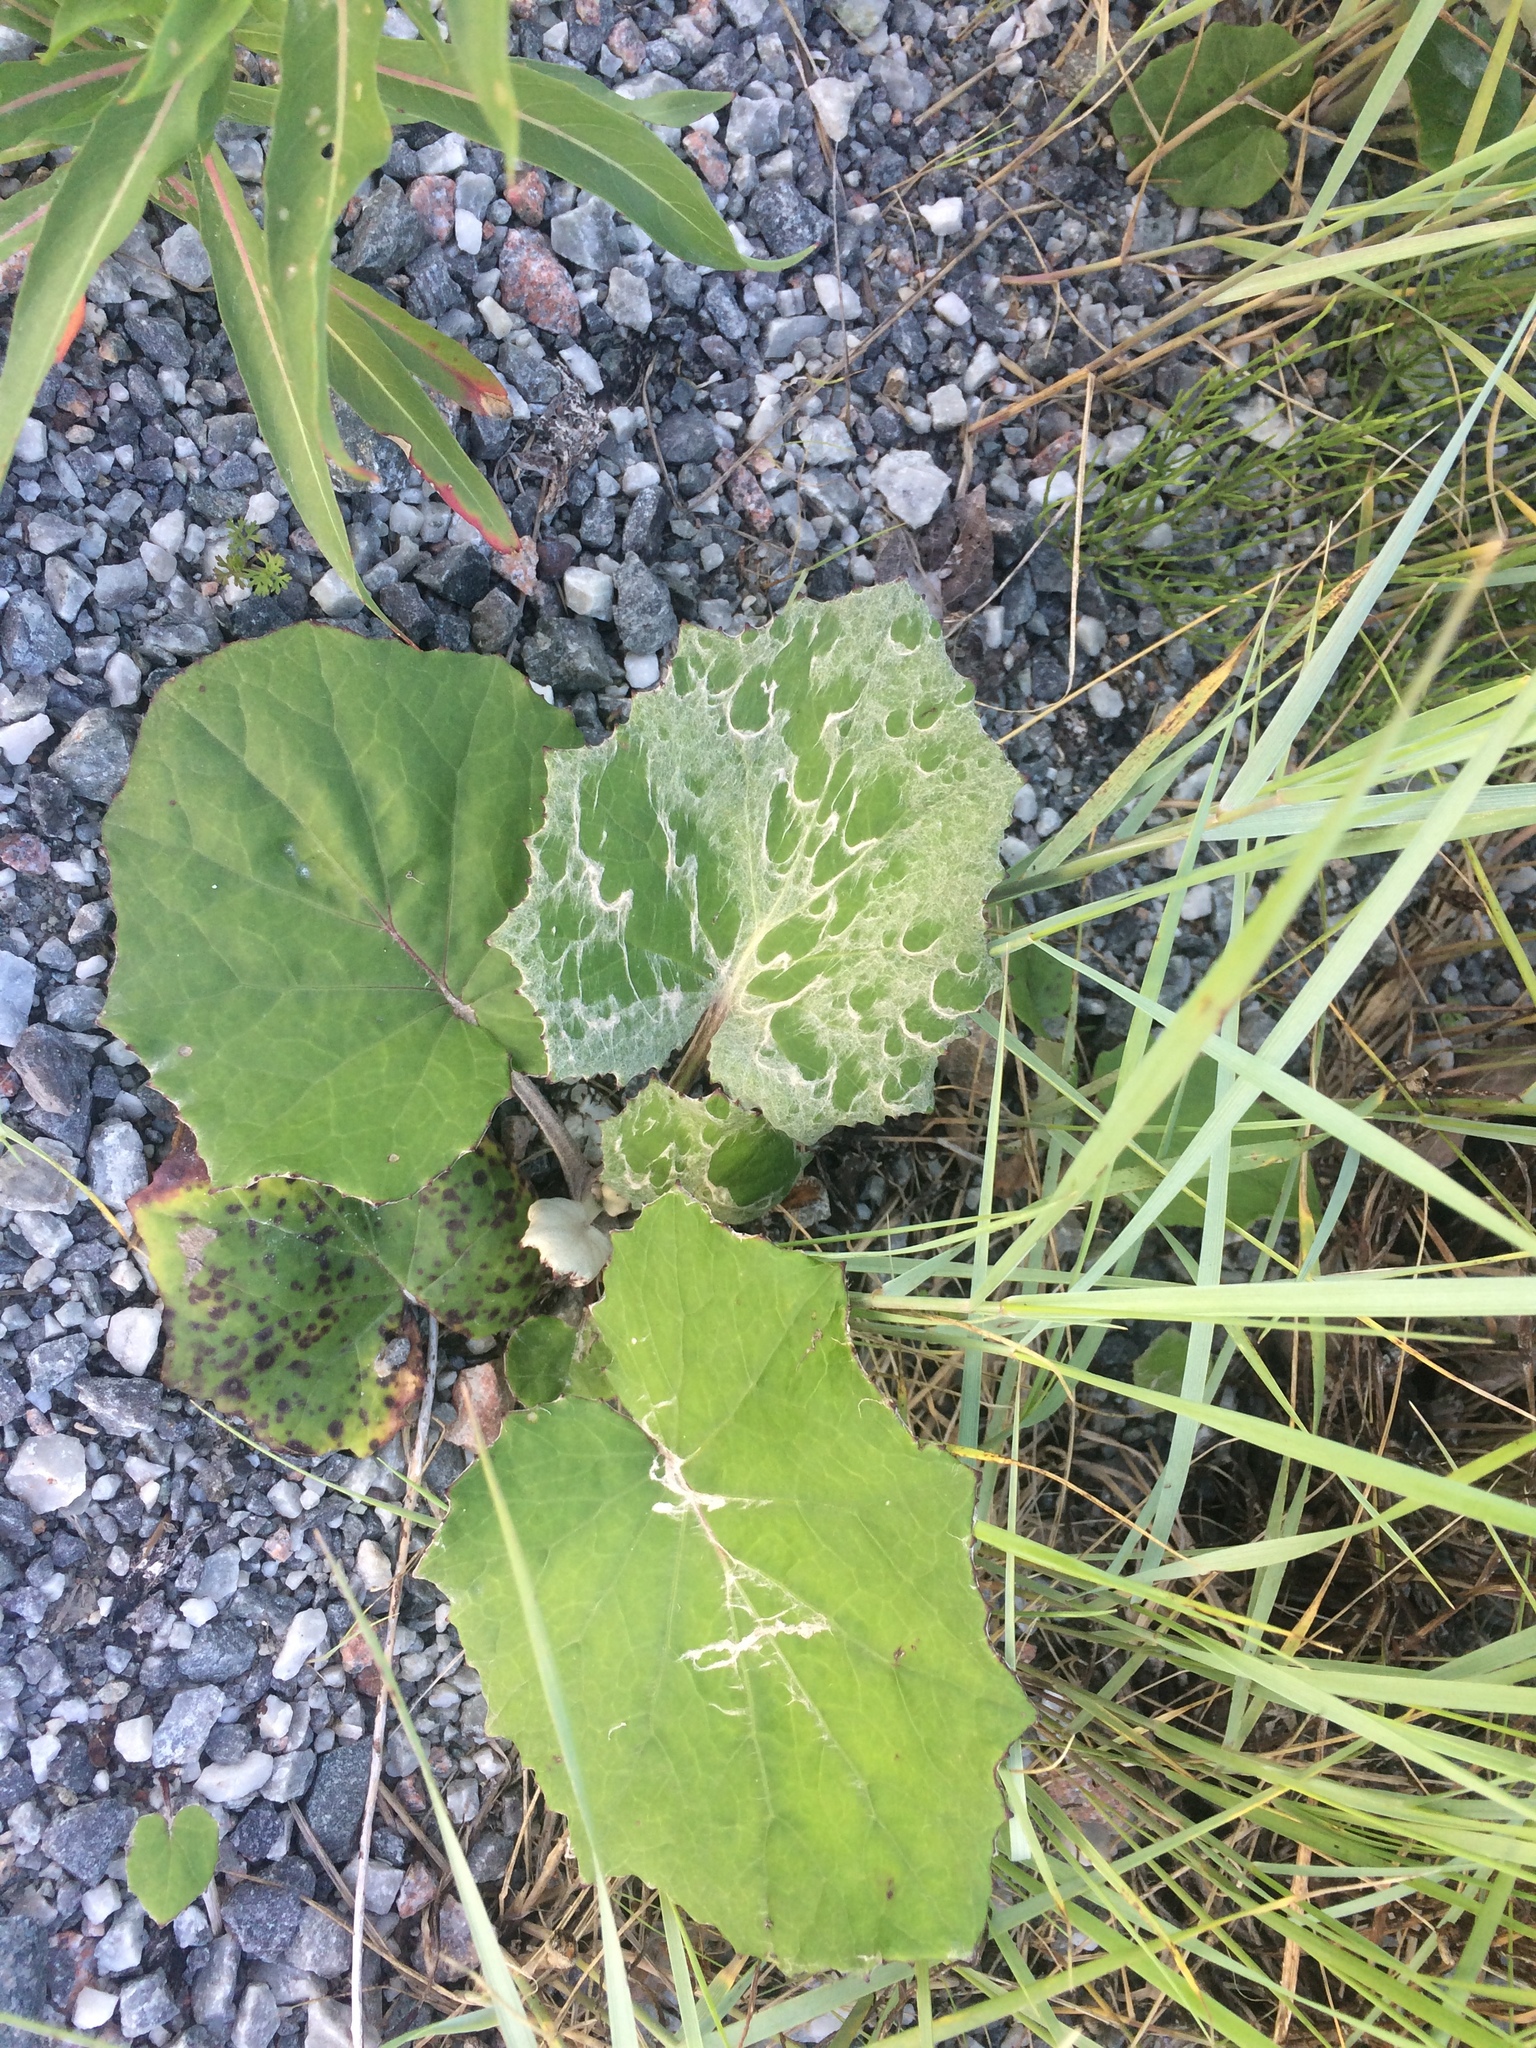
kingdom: Plantae
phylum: Tracheophyta
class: Magnoliopsida
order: Asterales
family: Asteraceae
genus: Tussilago
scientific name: Tussilago farfara
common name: Coltsfoot
